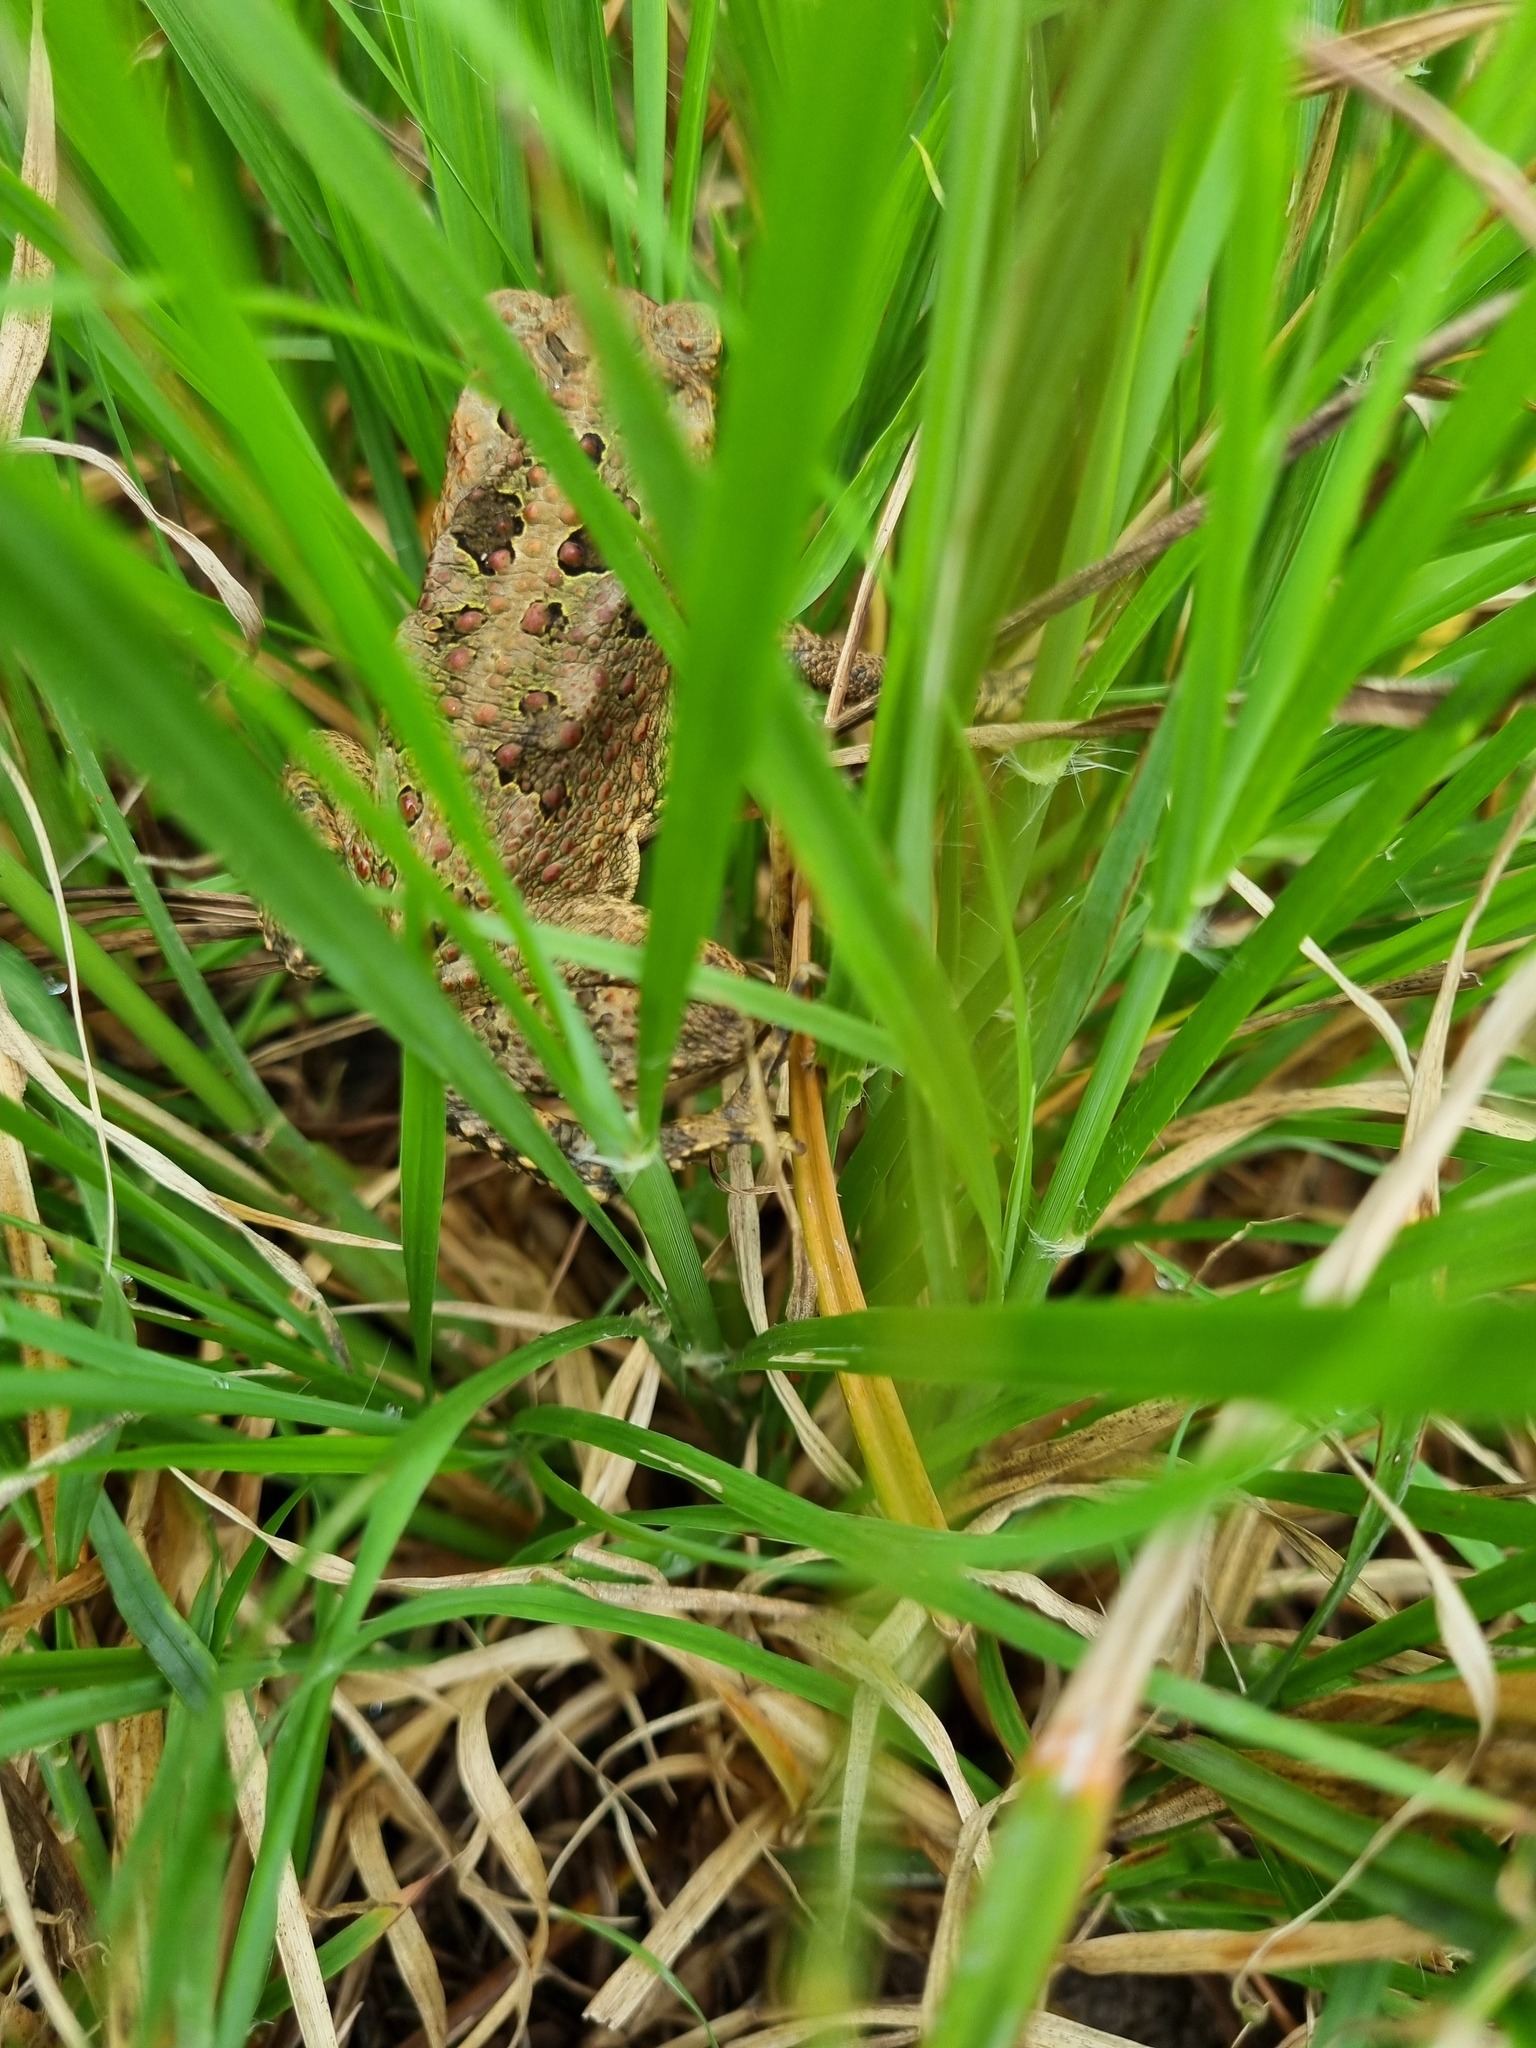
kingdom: Animalia
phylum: Chordata
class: Amphibia
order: Anura
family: Bufonidae
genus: Rhinella
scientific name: Rhinella marina
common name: Cane toad
